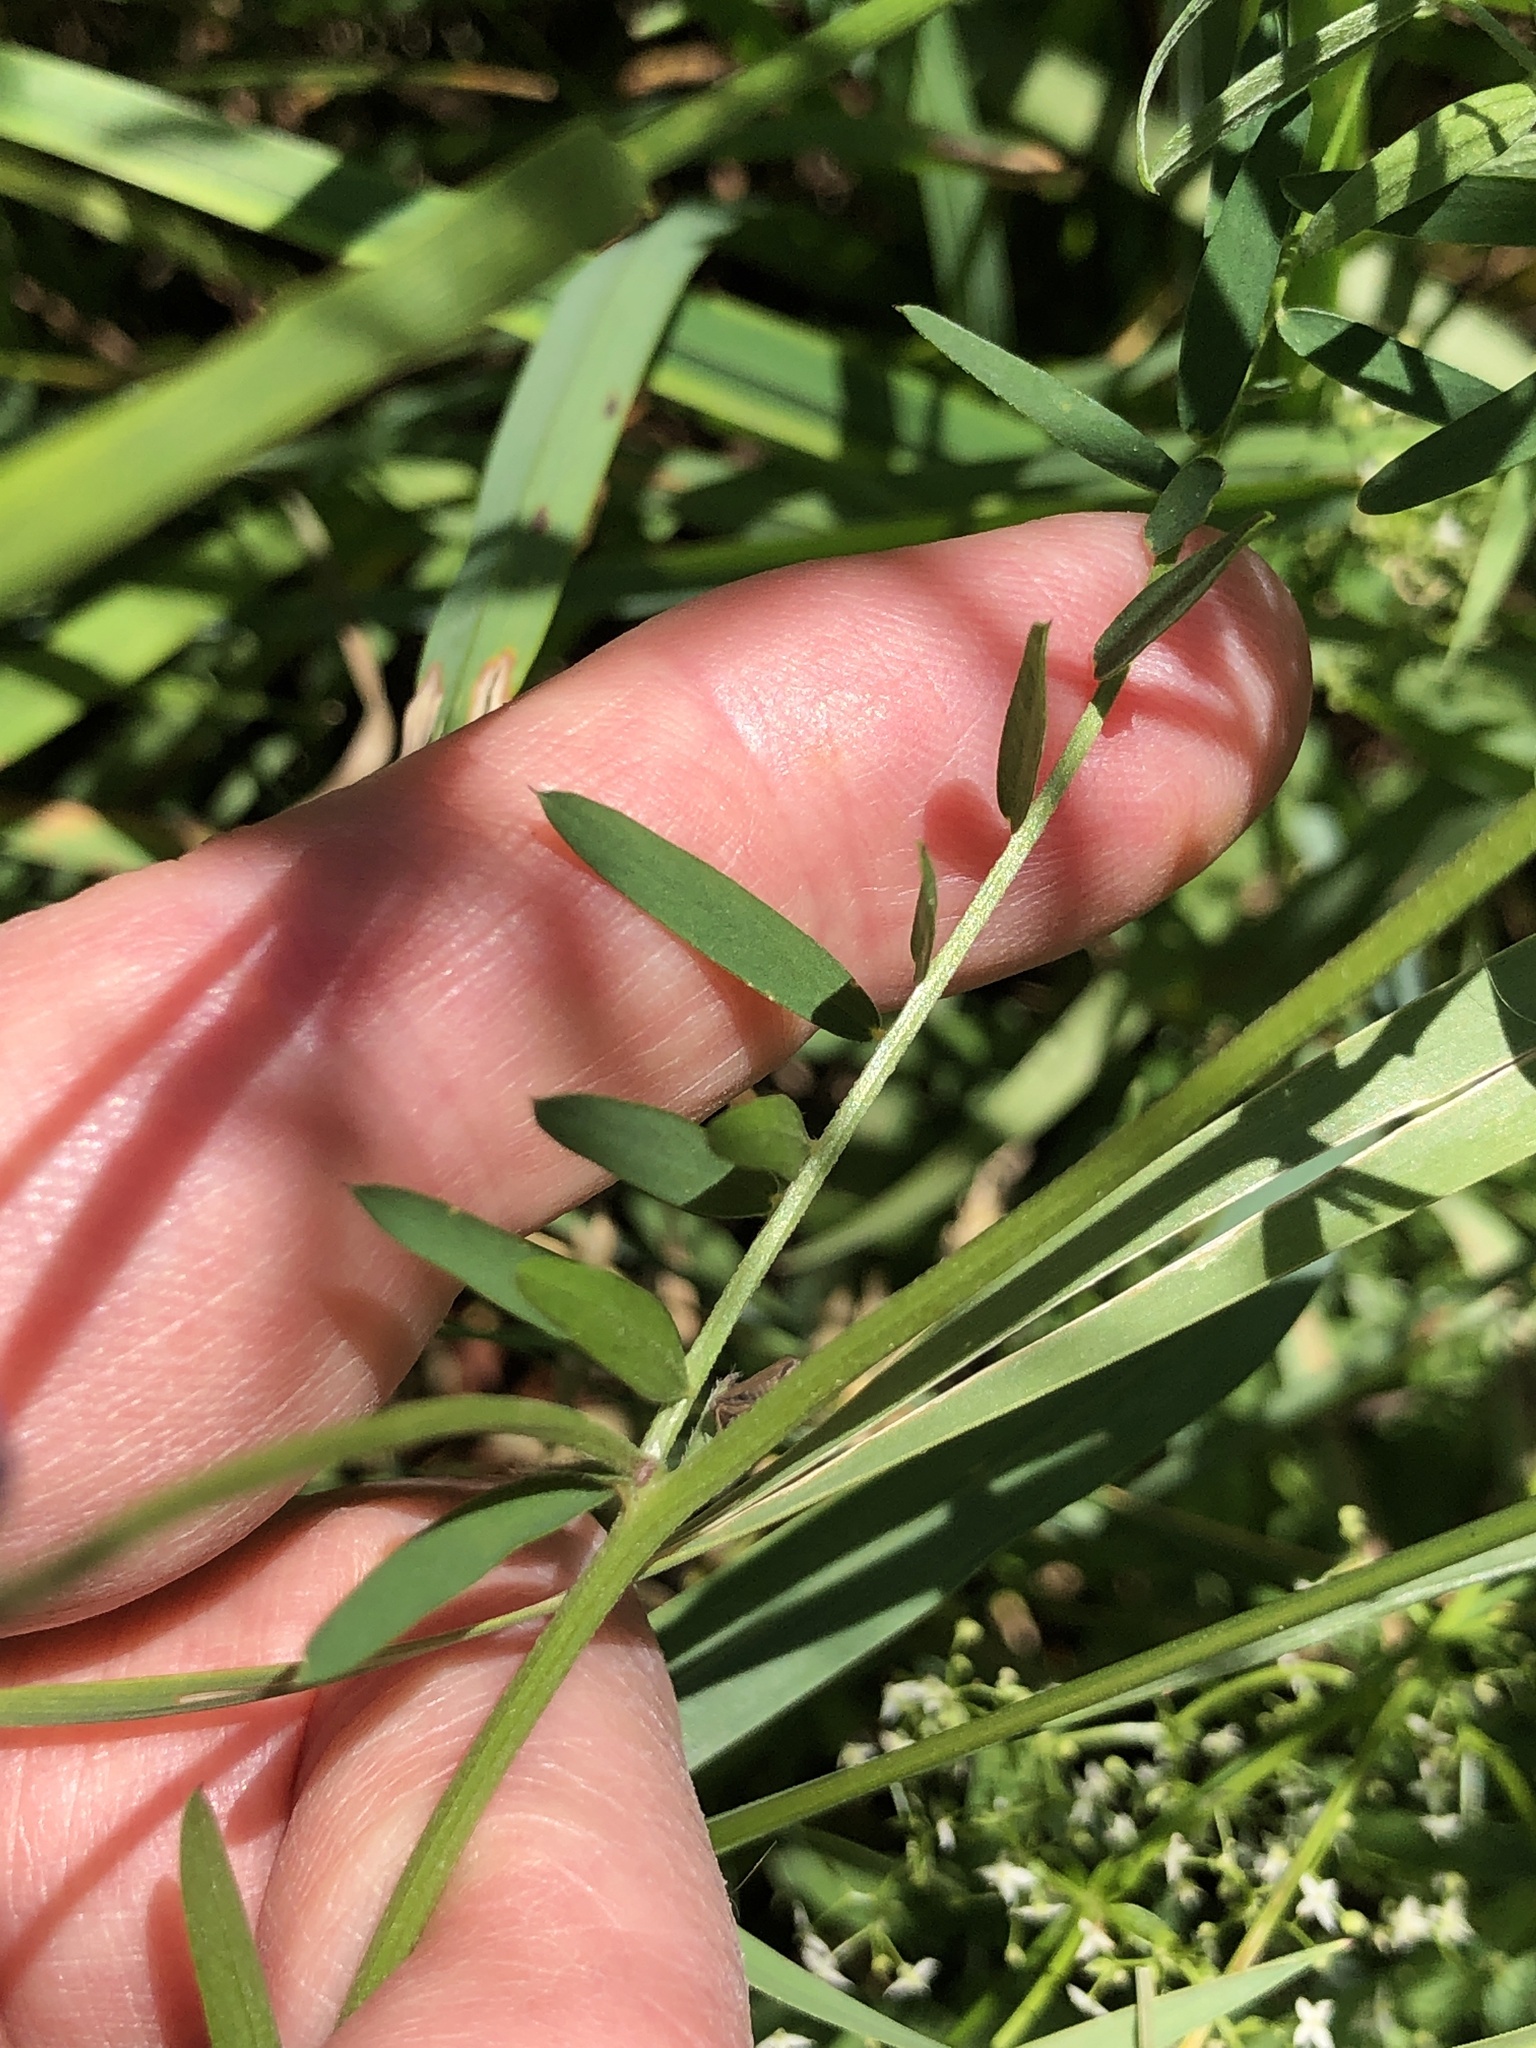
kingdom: Plantae
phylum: Tracheophyta
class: Magnoliopsida
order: Fabales
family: Fabaceae
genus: Vicia
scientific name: Vicia cracca
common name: Bird vetch
